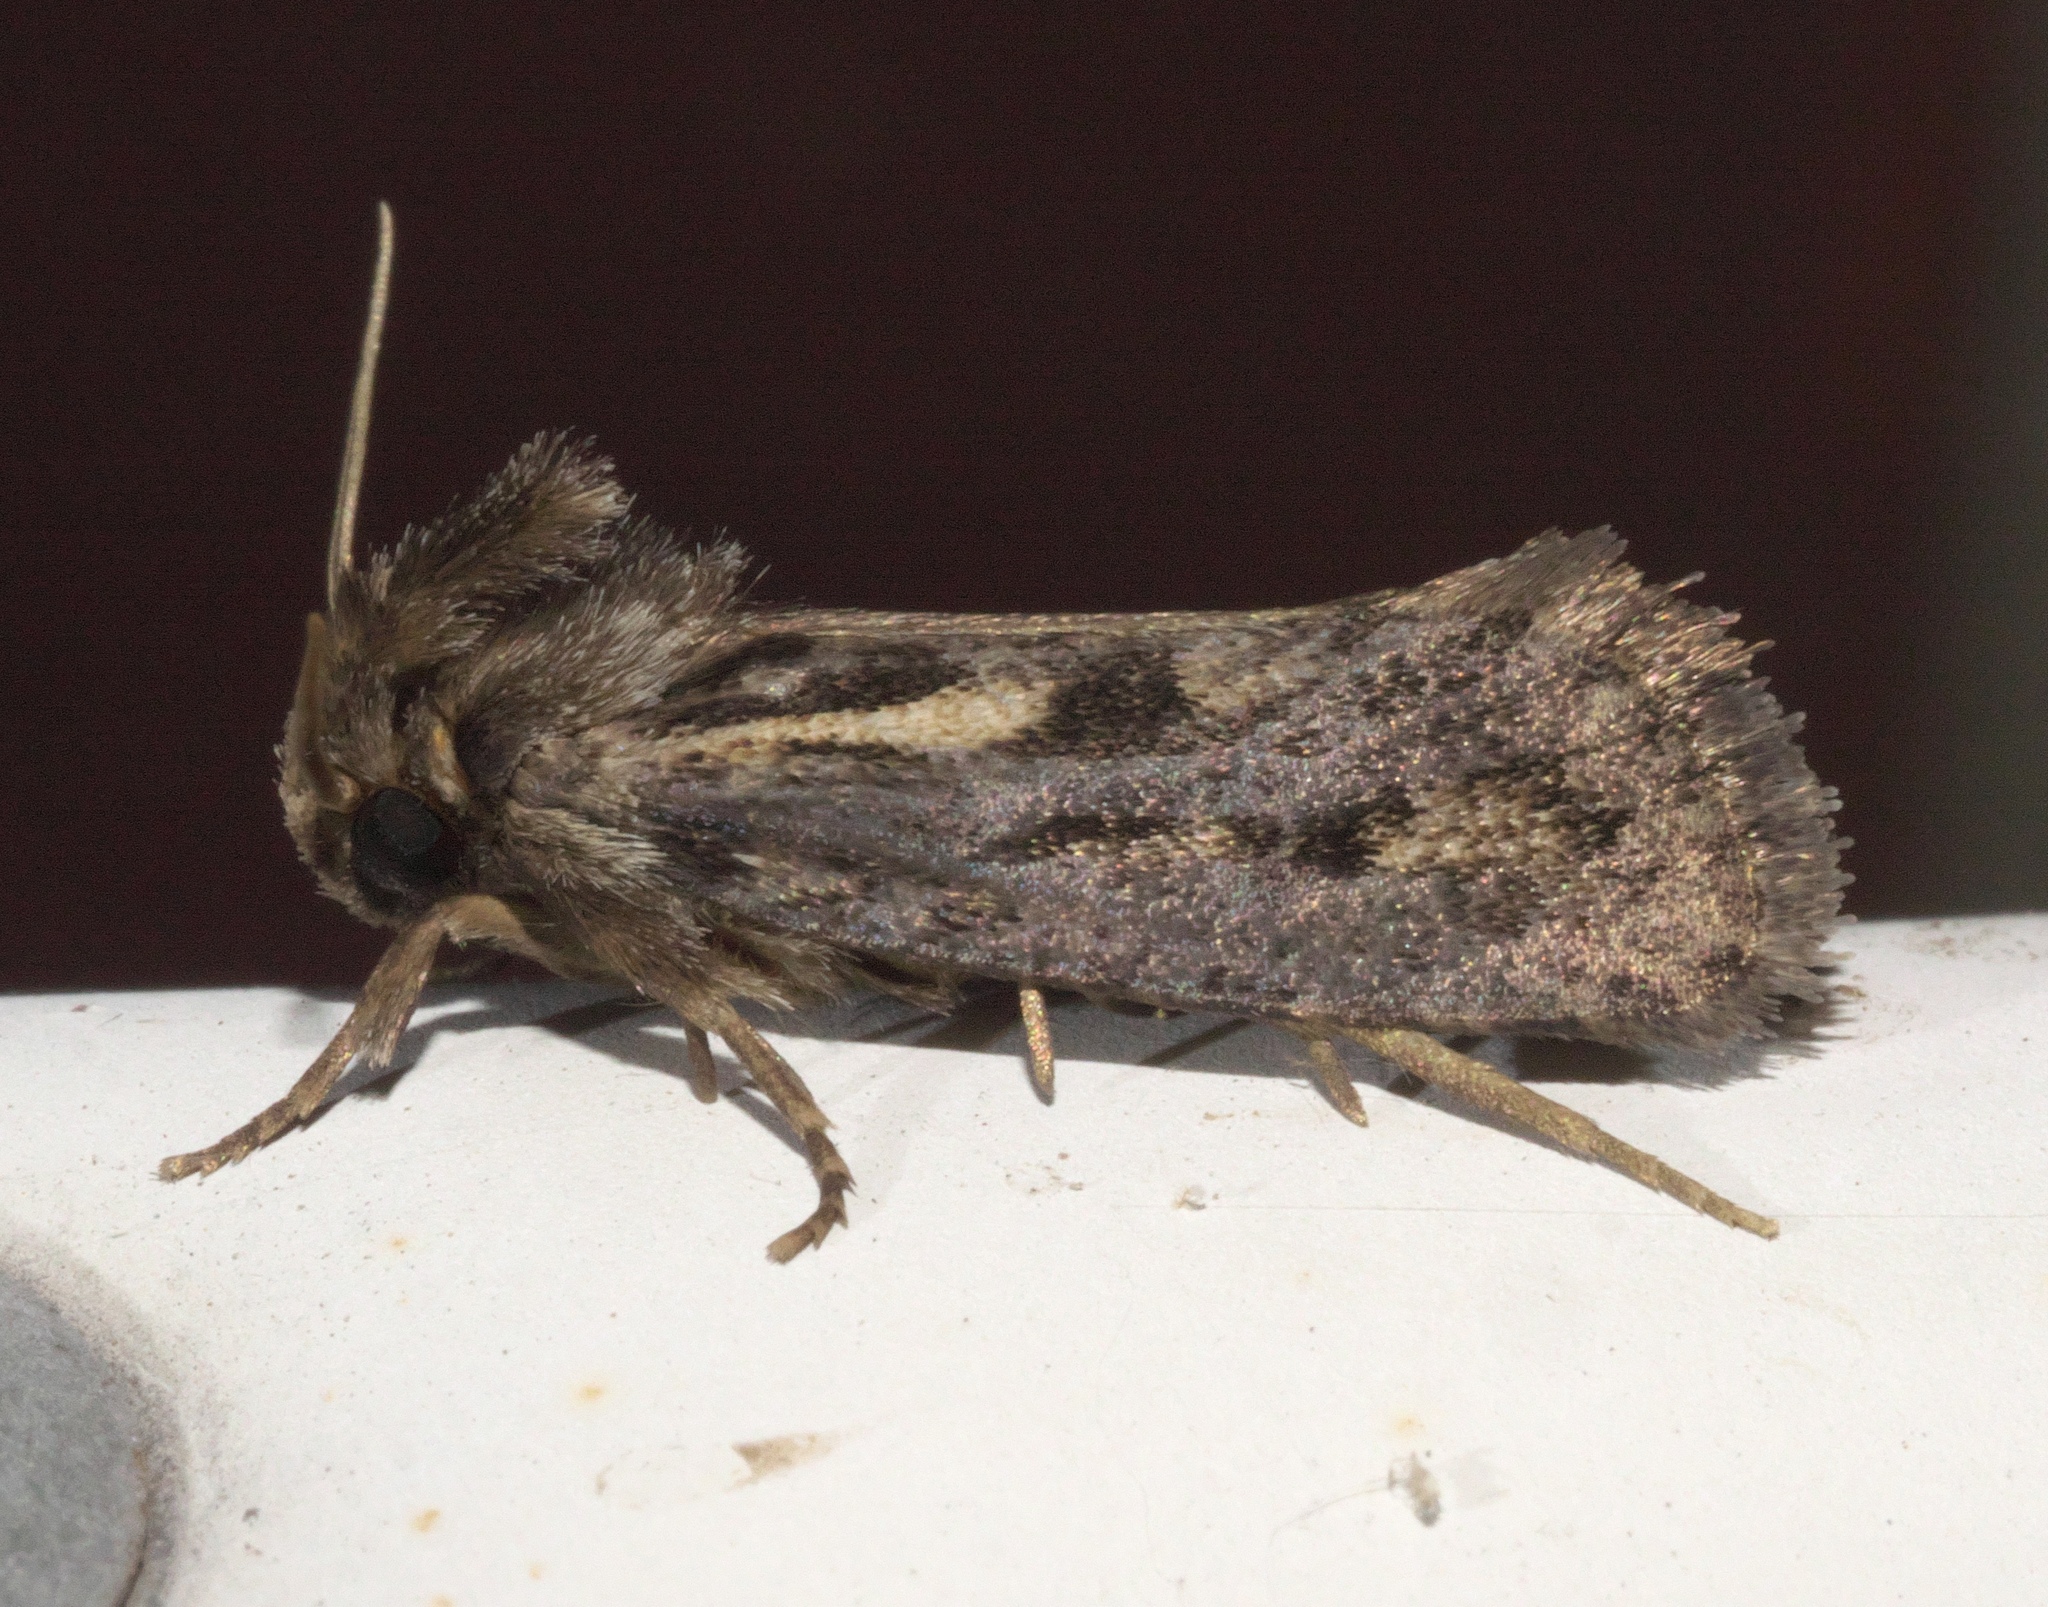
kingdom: Animalia
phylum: Arthropoda
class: Insecta
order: Lepidoptera
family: Tineidae
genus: Acrolophus
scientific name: Acrolophus popeanella
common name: Clemens' grass tubeworm moth
